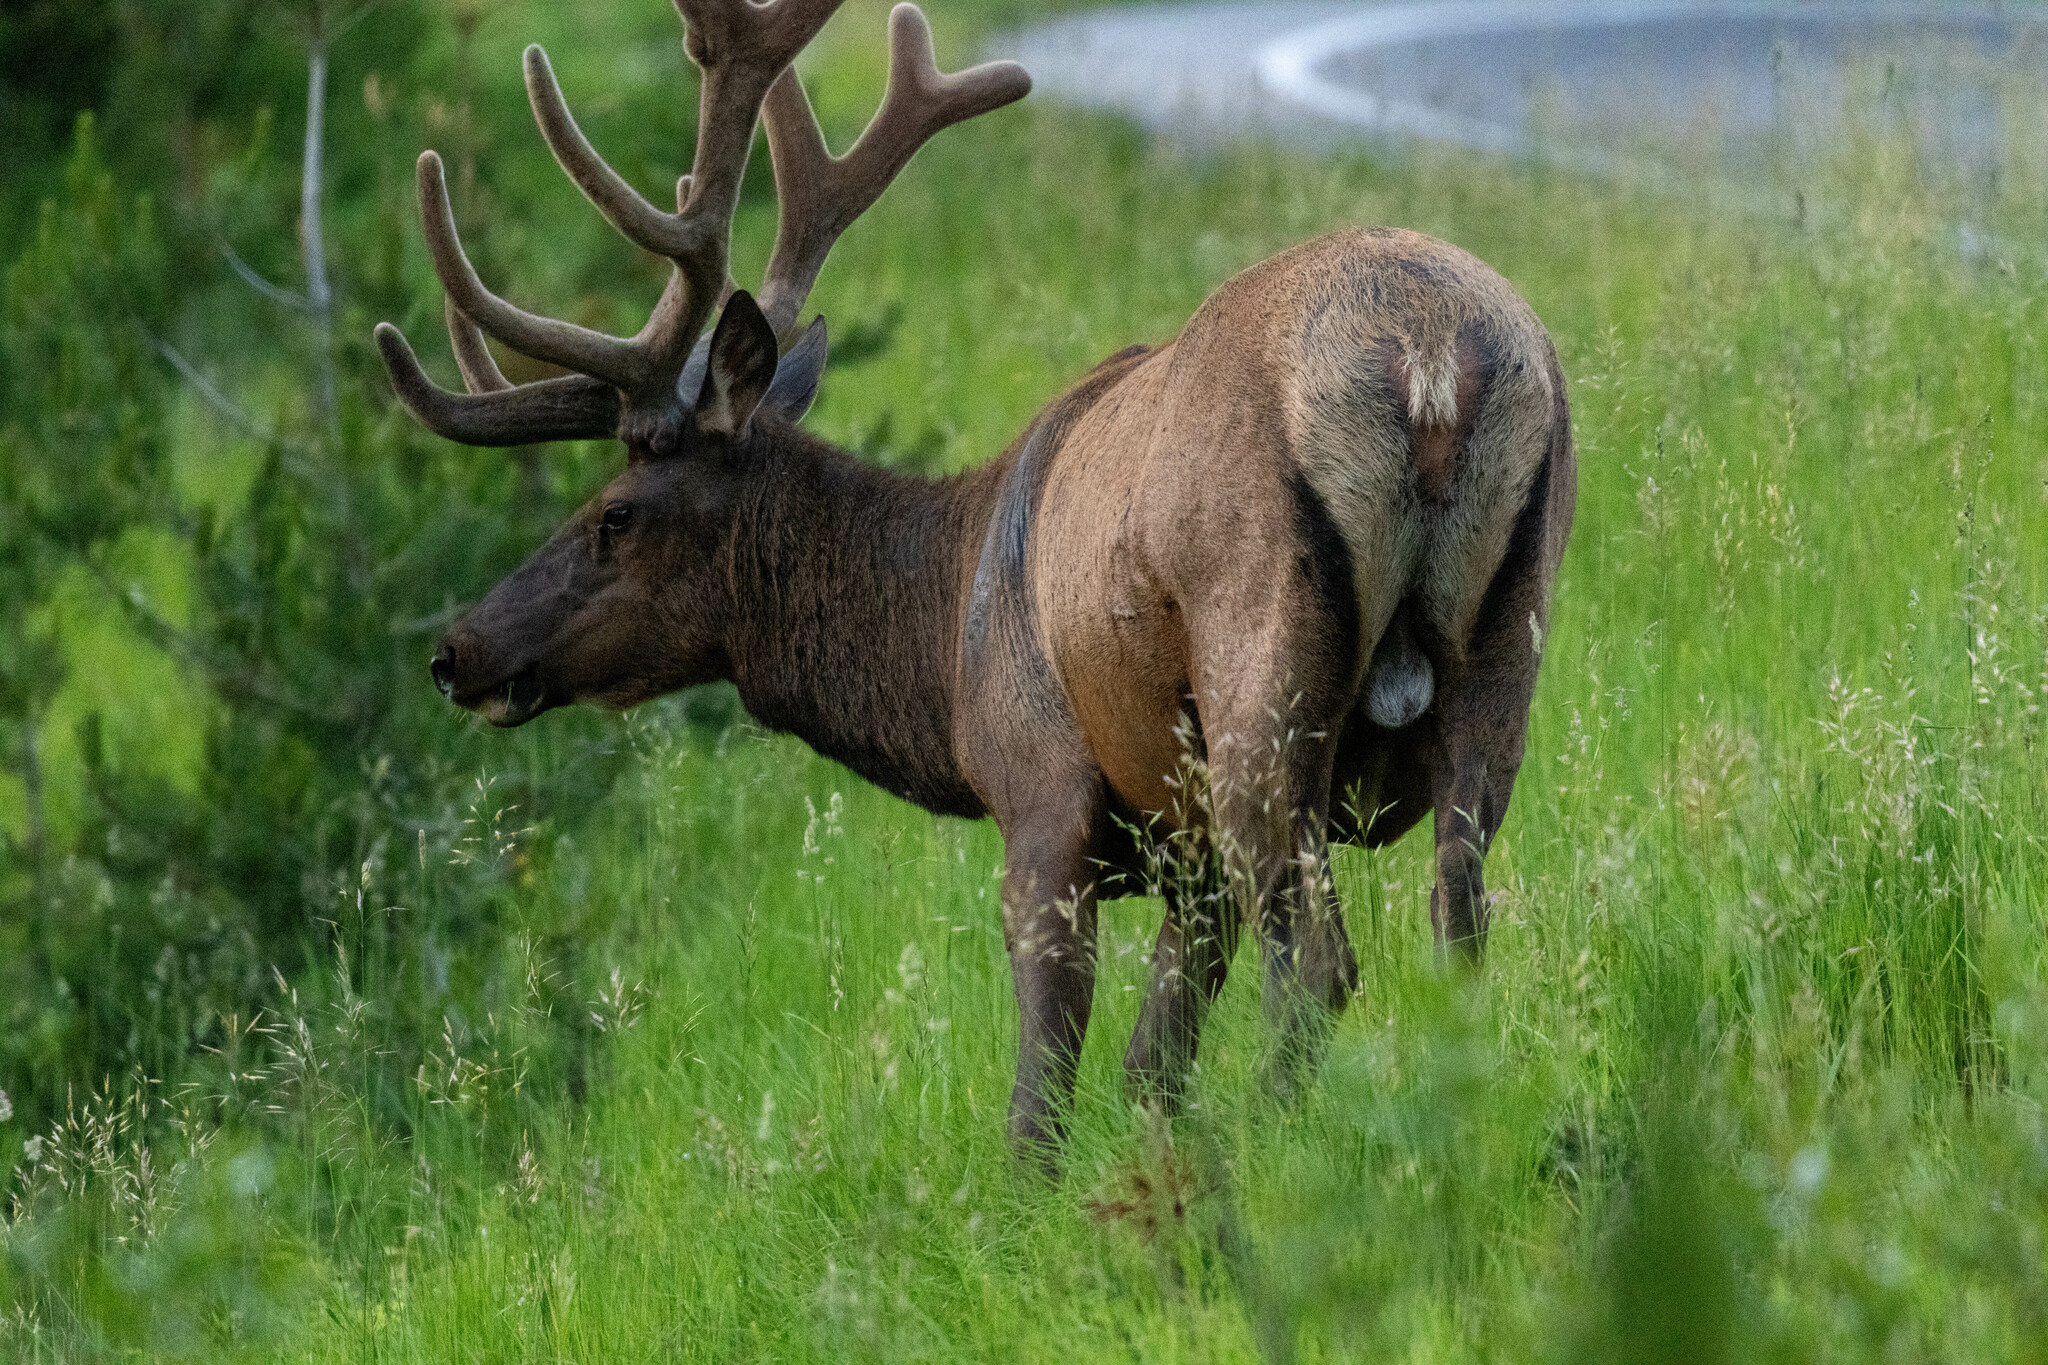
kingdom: Animalia
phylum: Chordata
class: Mammalia
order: Artiodactyla
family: Cervidae
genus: Cervus
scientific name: Cervus elaphus
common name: Red deer
